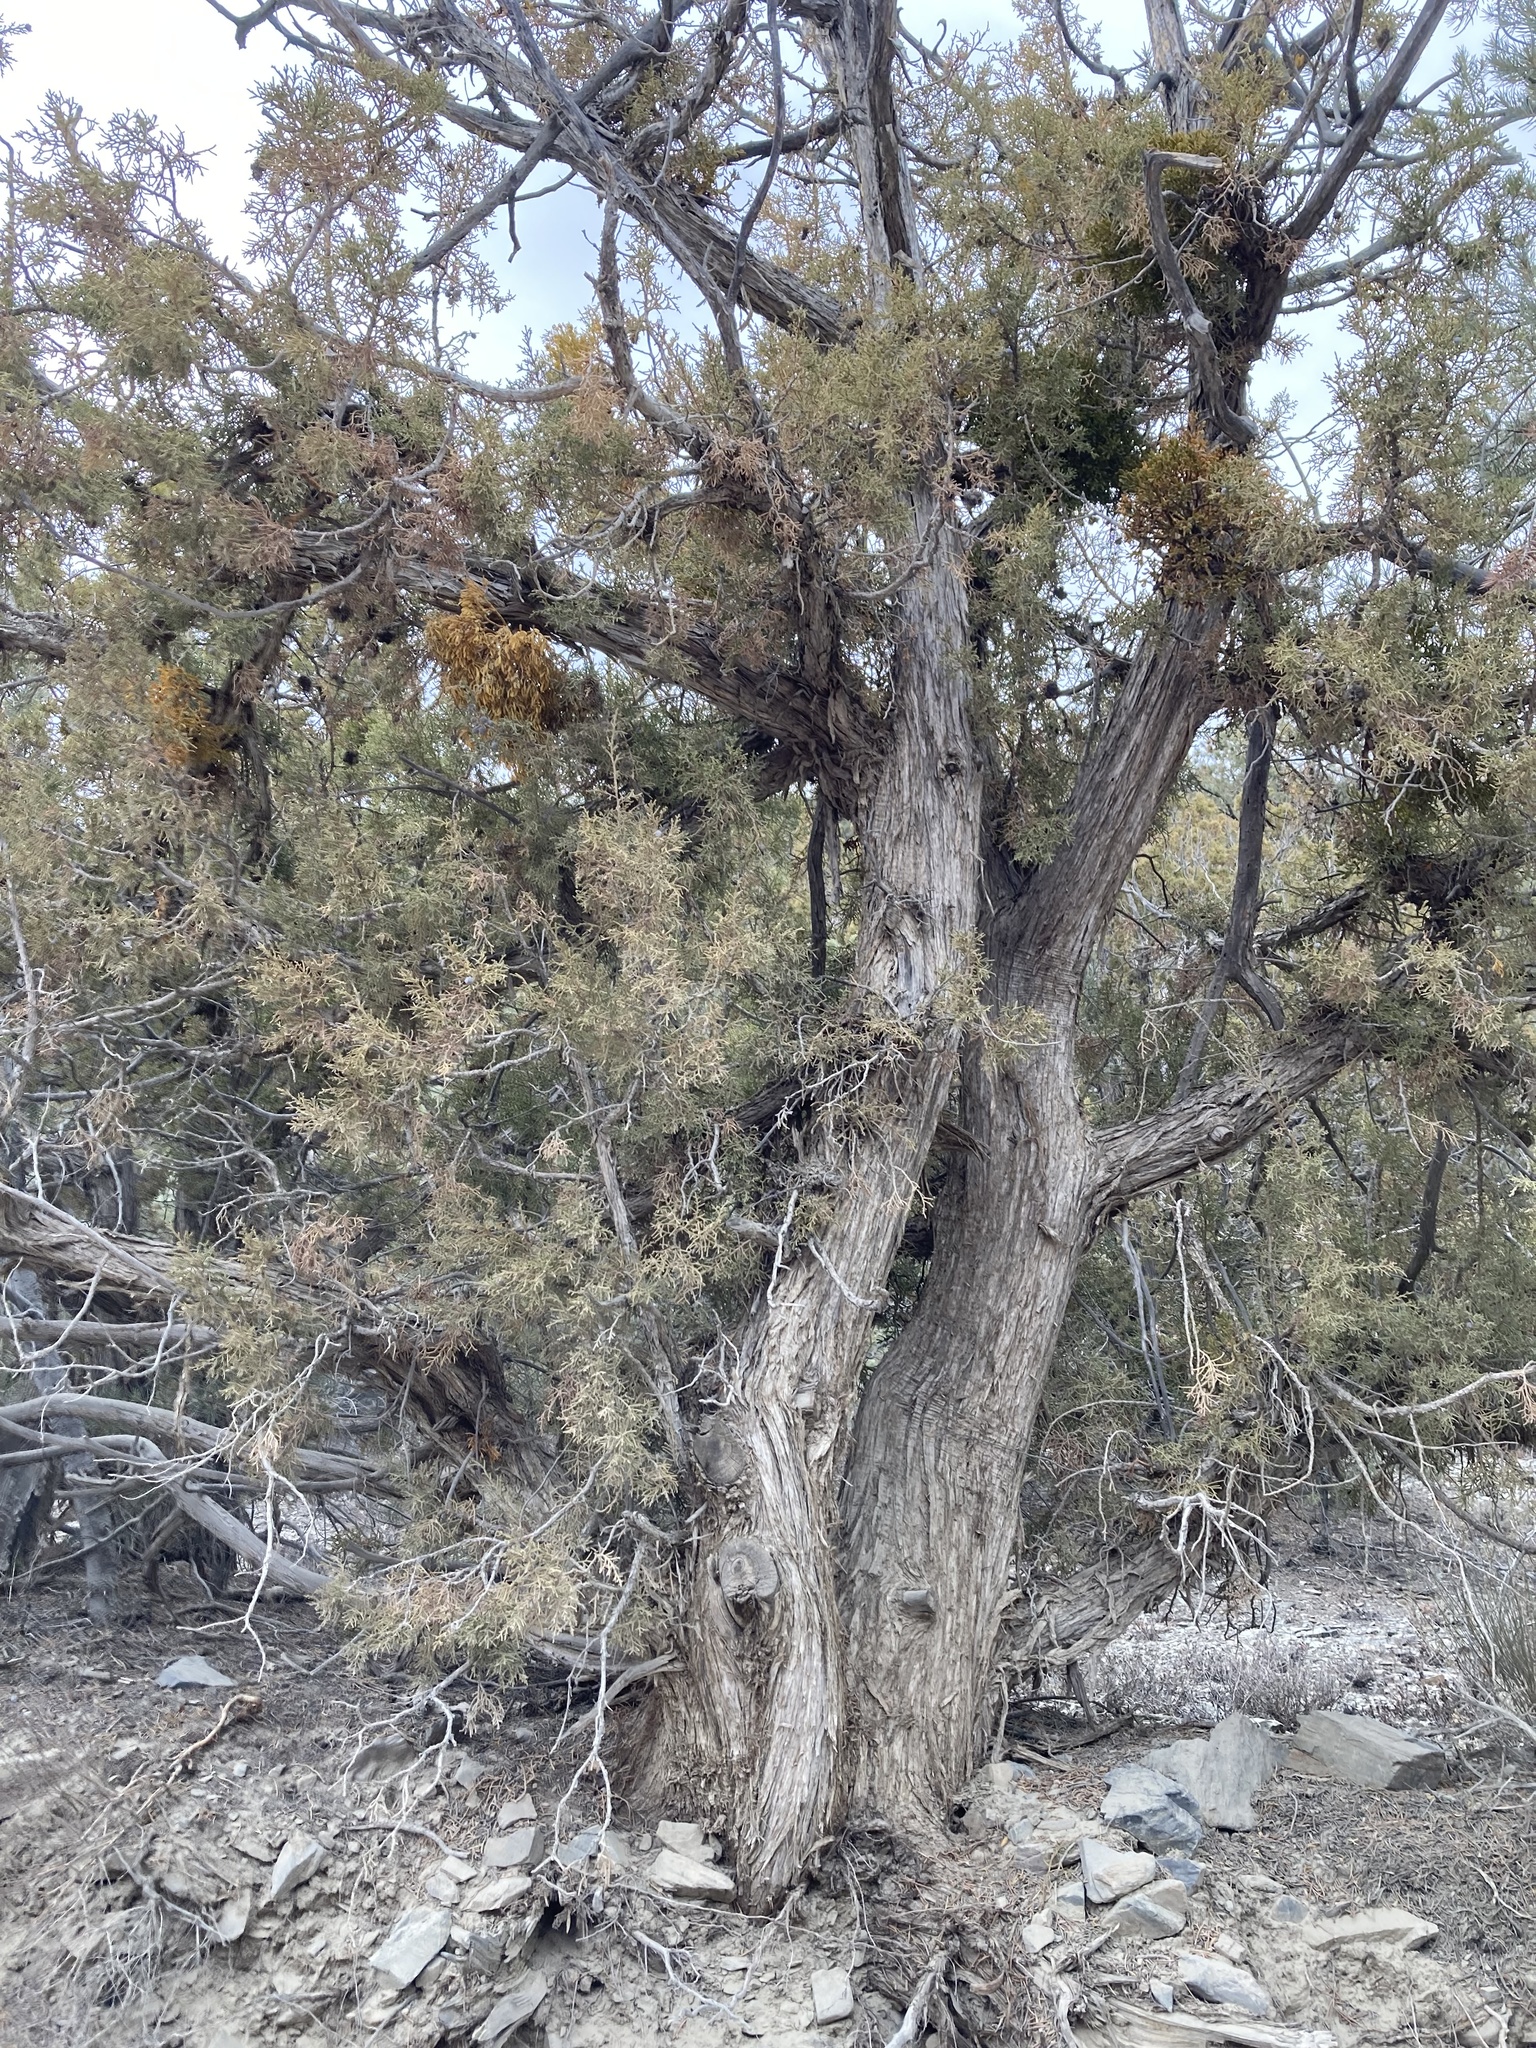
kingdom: Plantae
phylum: Tracheophyta
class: Magnoliopsida
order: Santalales
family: Viscaceae
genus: Phoradendron
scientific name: Phoradendron bolleanum
